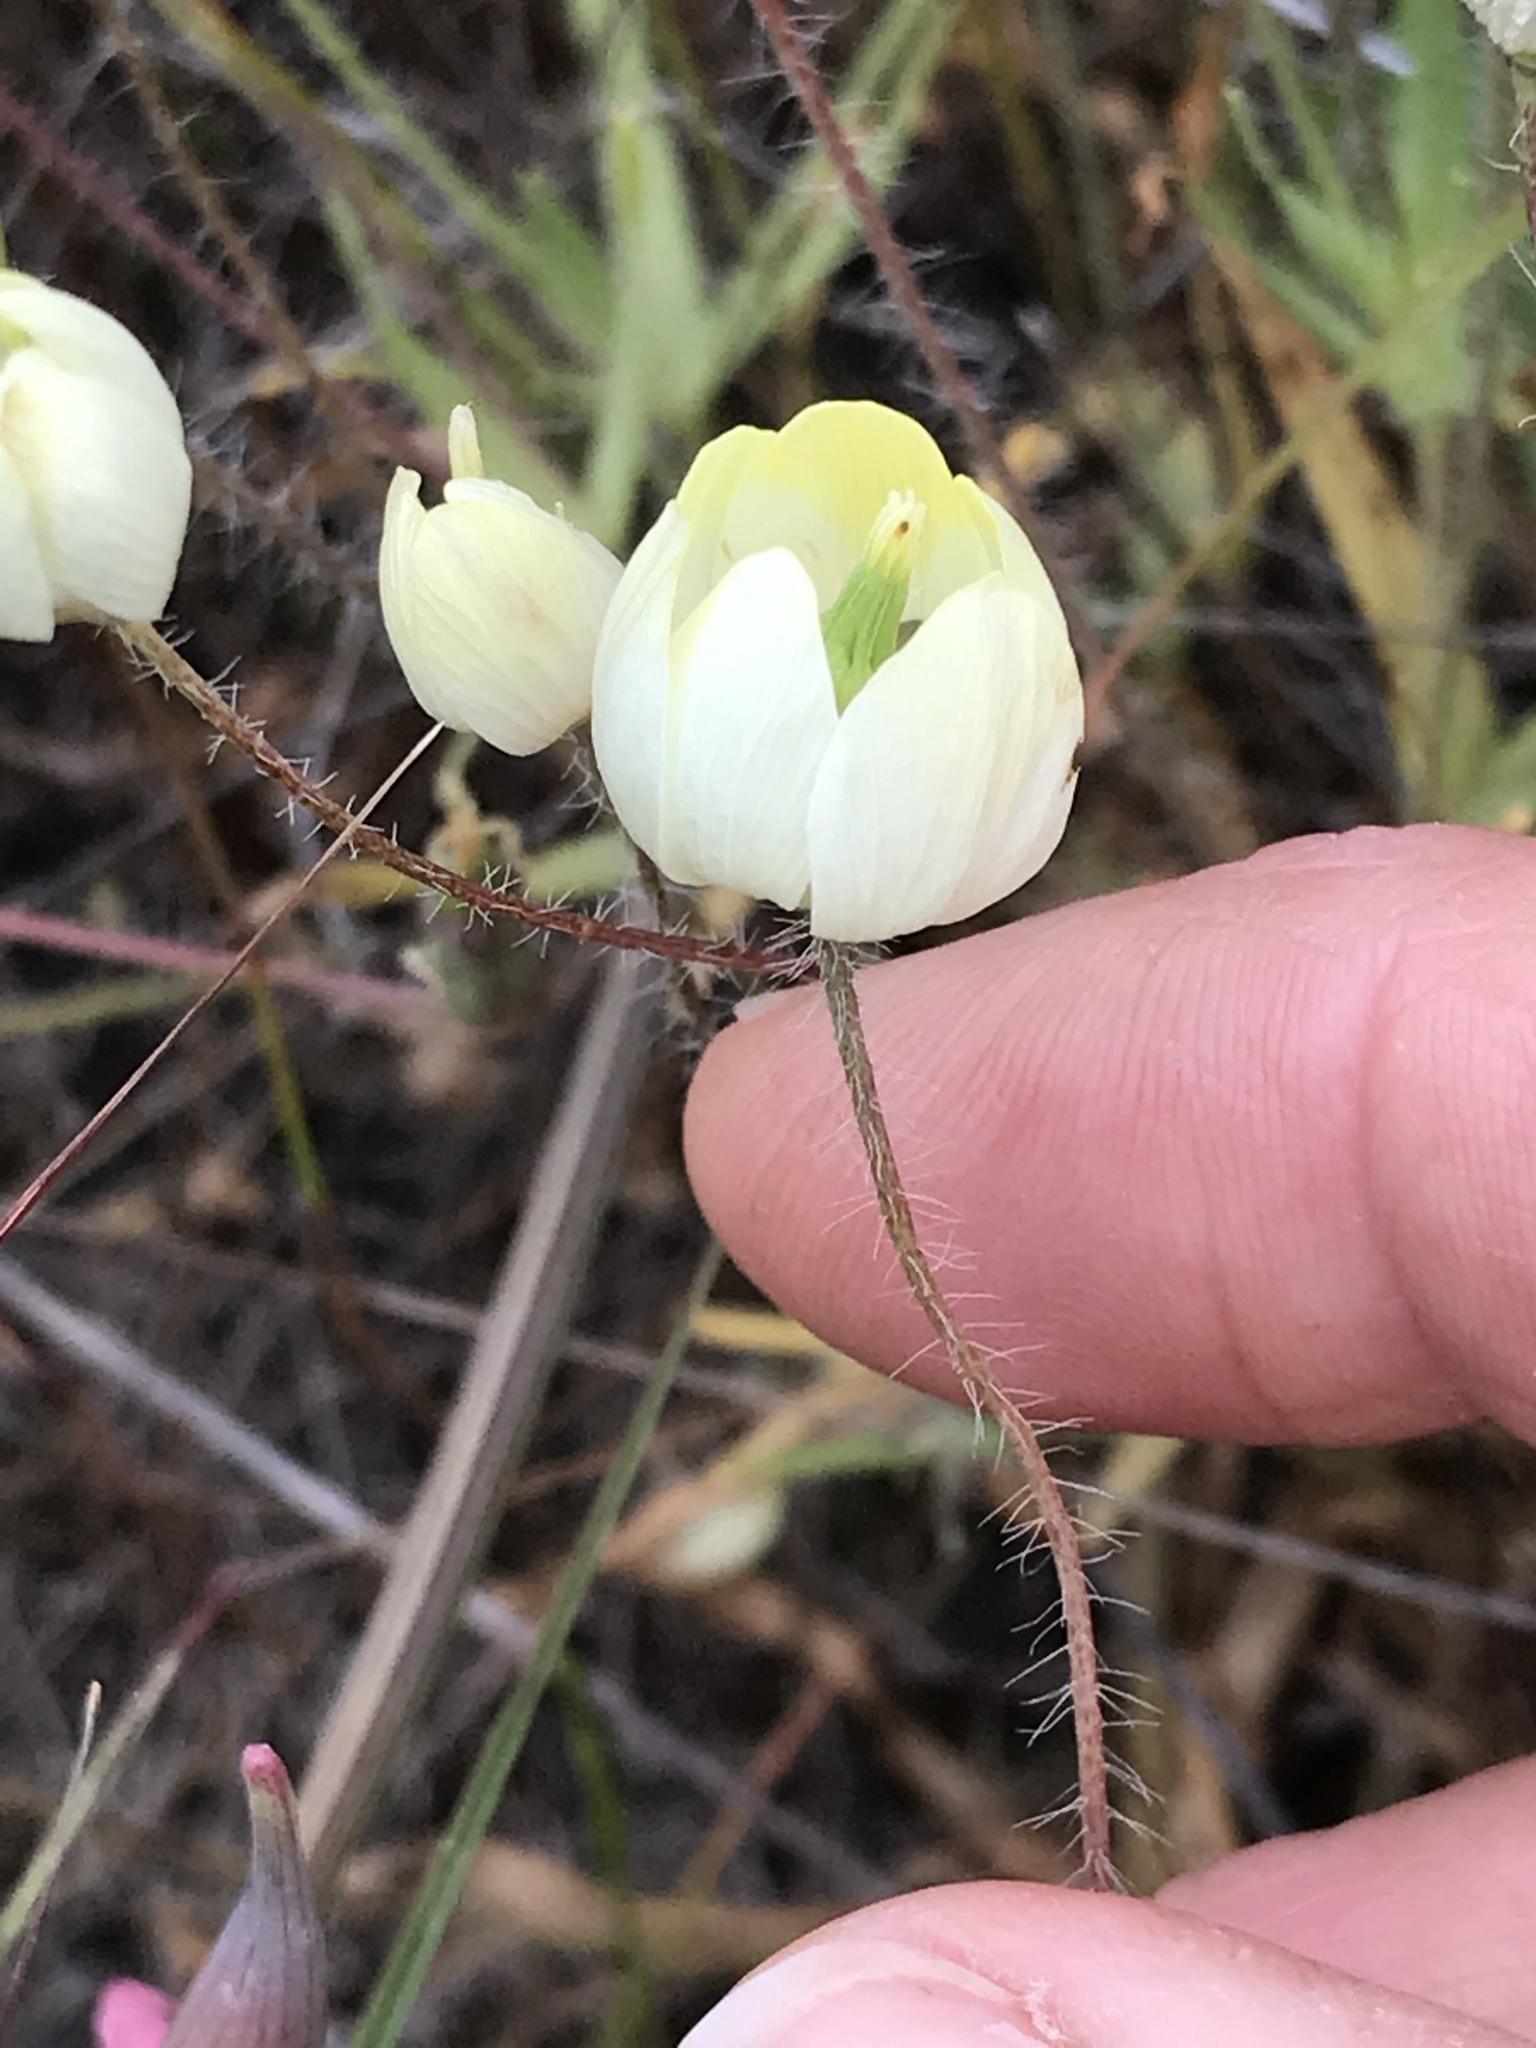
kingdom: Plantae
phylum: Tracheophyta
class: Magnoliopsida
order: Ranunculales
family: Papaveraceae
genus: Platystemon
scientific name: Platystemon californicus
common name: Cream-cups
